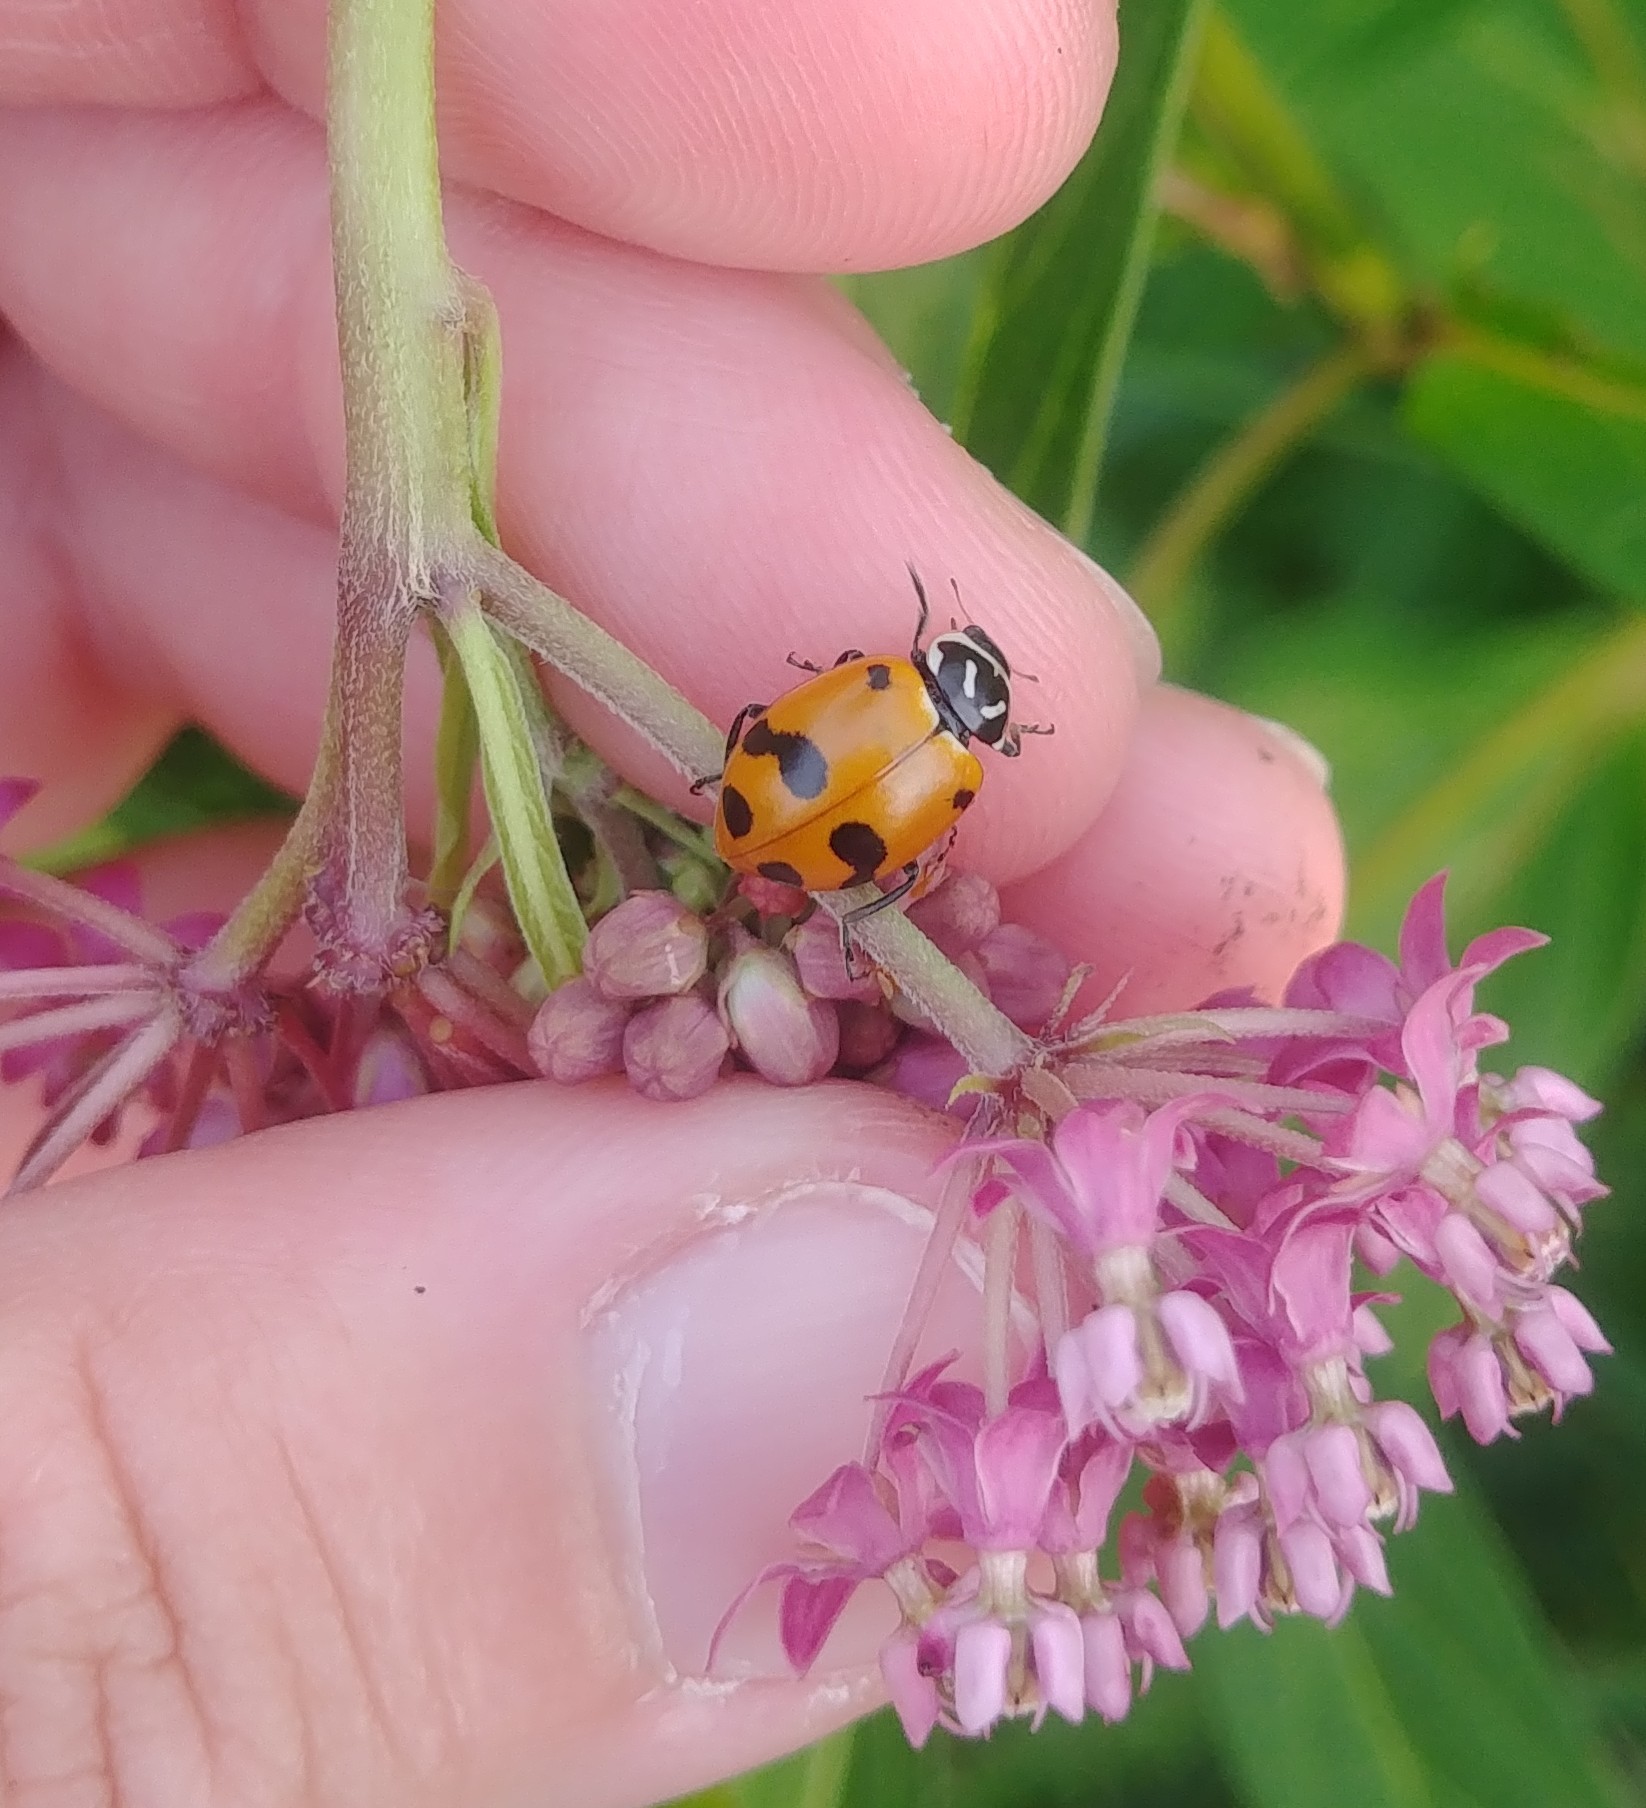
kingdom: Animalia
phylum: Arthropoda
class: Insecta
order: Coleoptera
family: Coccinellidae
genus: Hippodamia
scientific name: Hippodamia glacialis
